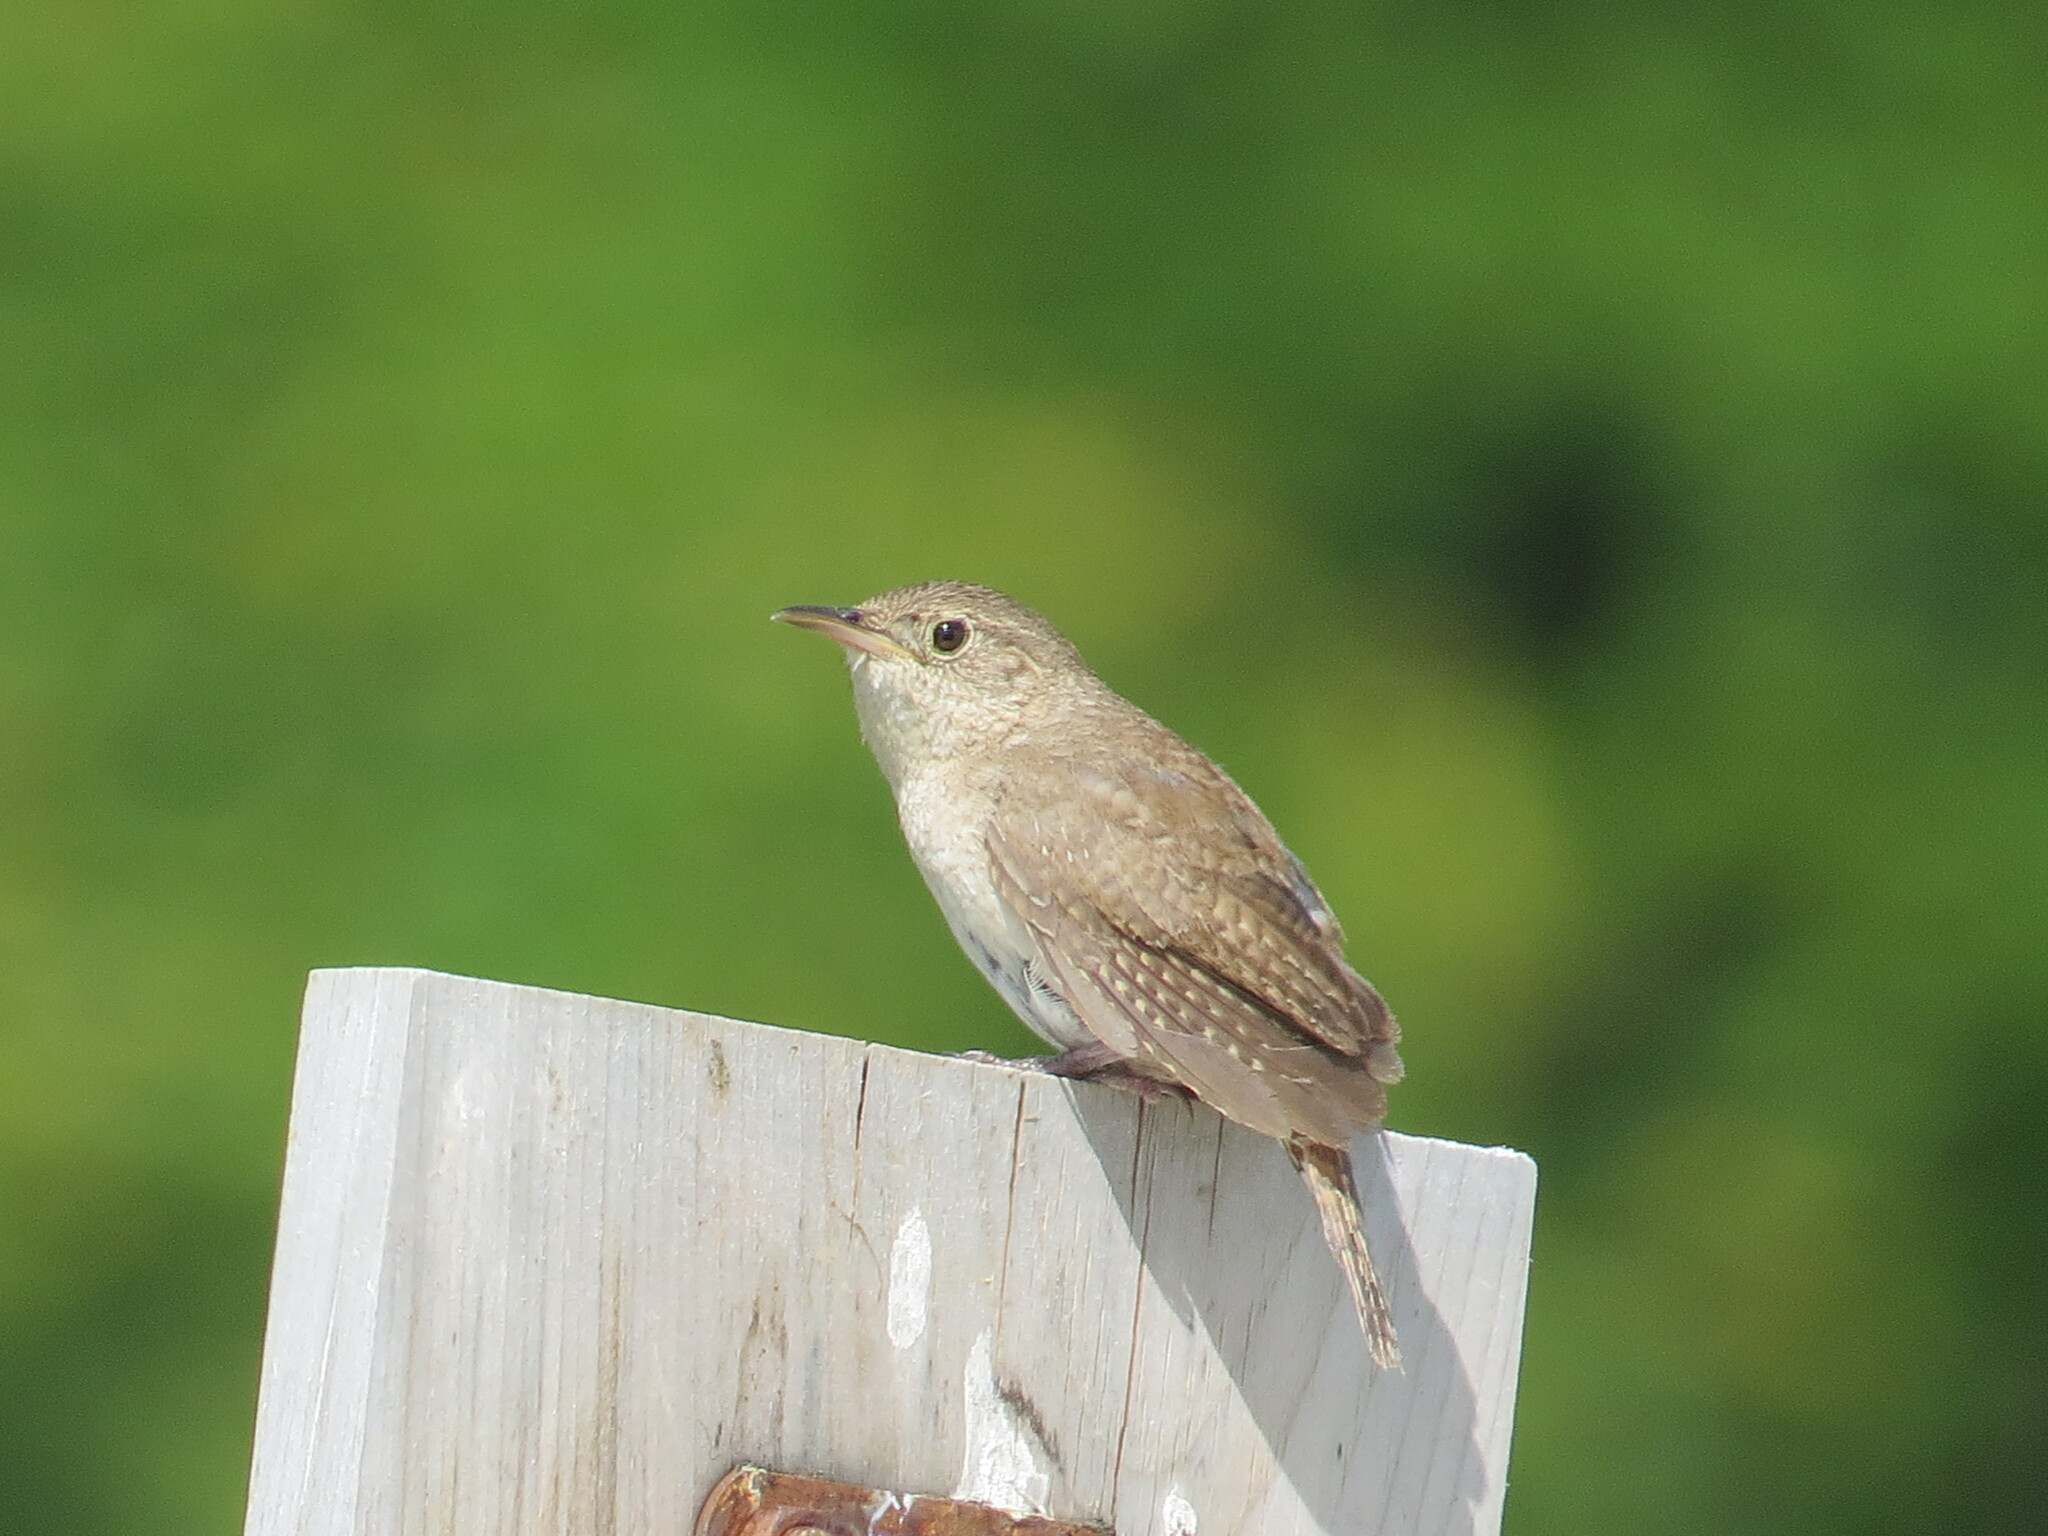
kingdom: Animalia
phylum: Chordata
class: Aves
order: Passeriformes
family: Troglodytidae
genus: Troglodytes
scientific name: Troglodytes aedon
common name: House wren
